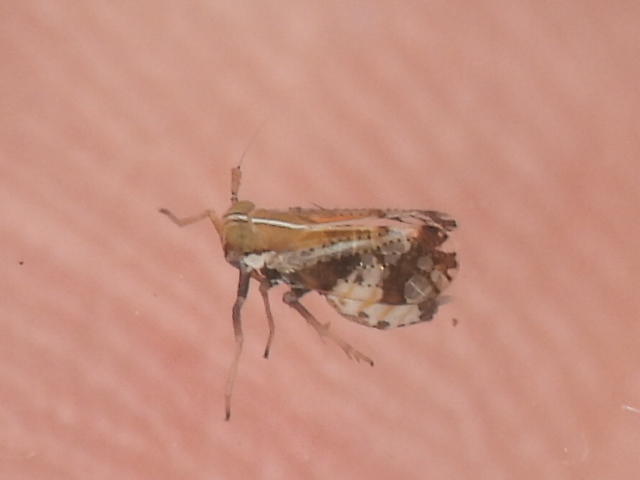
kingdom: Animalia
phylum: Arthropoda
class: Insecta
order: Hemiptera
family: Delphacidae
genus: Liburniella
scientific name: Liburniella ornata
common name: Ornate planthopper
